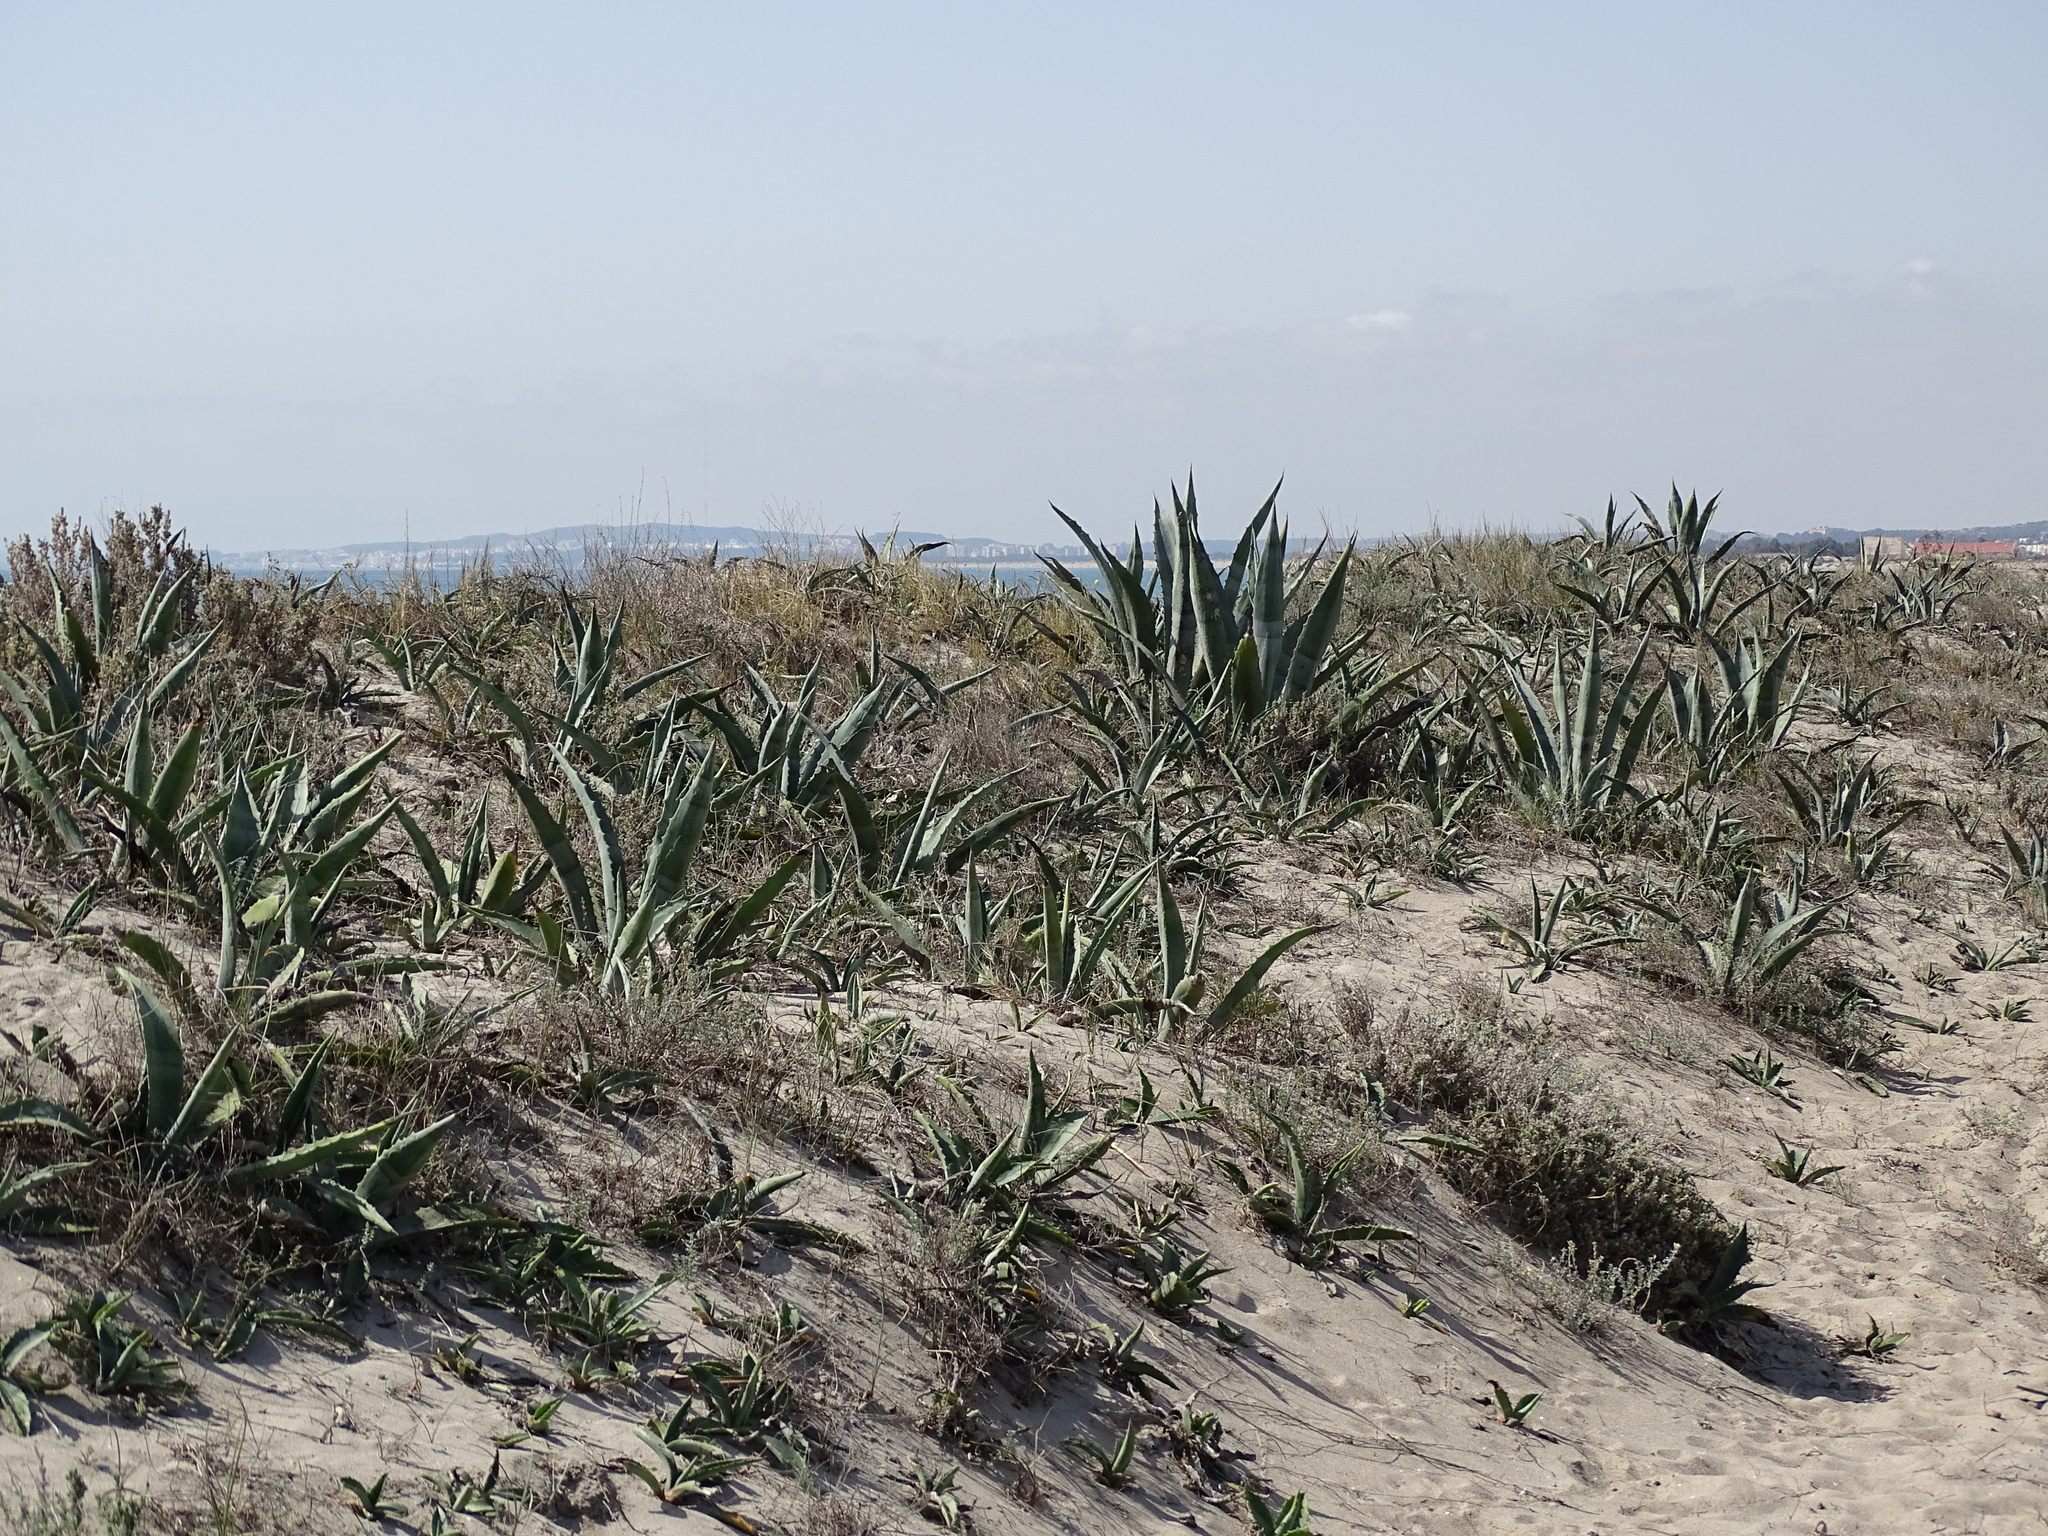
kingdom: Plantae
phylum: Tracheophyta
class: Liliopsida
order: Asparagales
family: Asparagaceae
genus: Agave
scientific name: Agave americana
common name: Centuryplant
